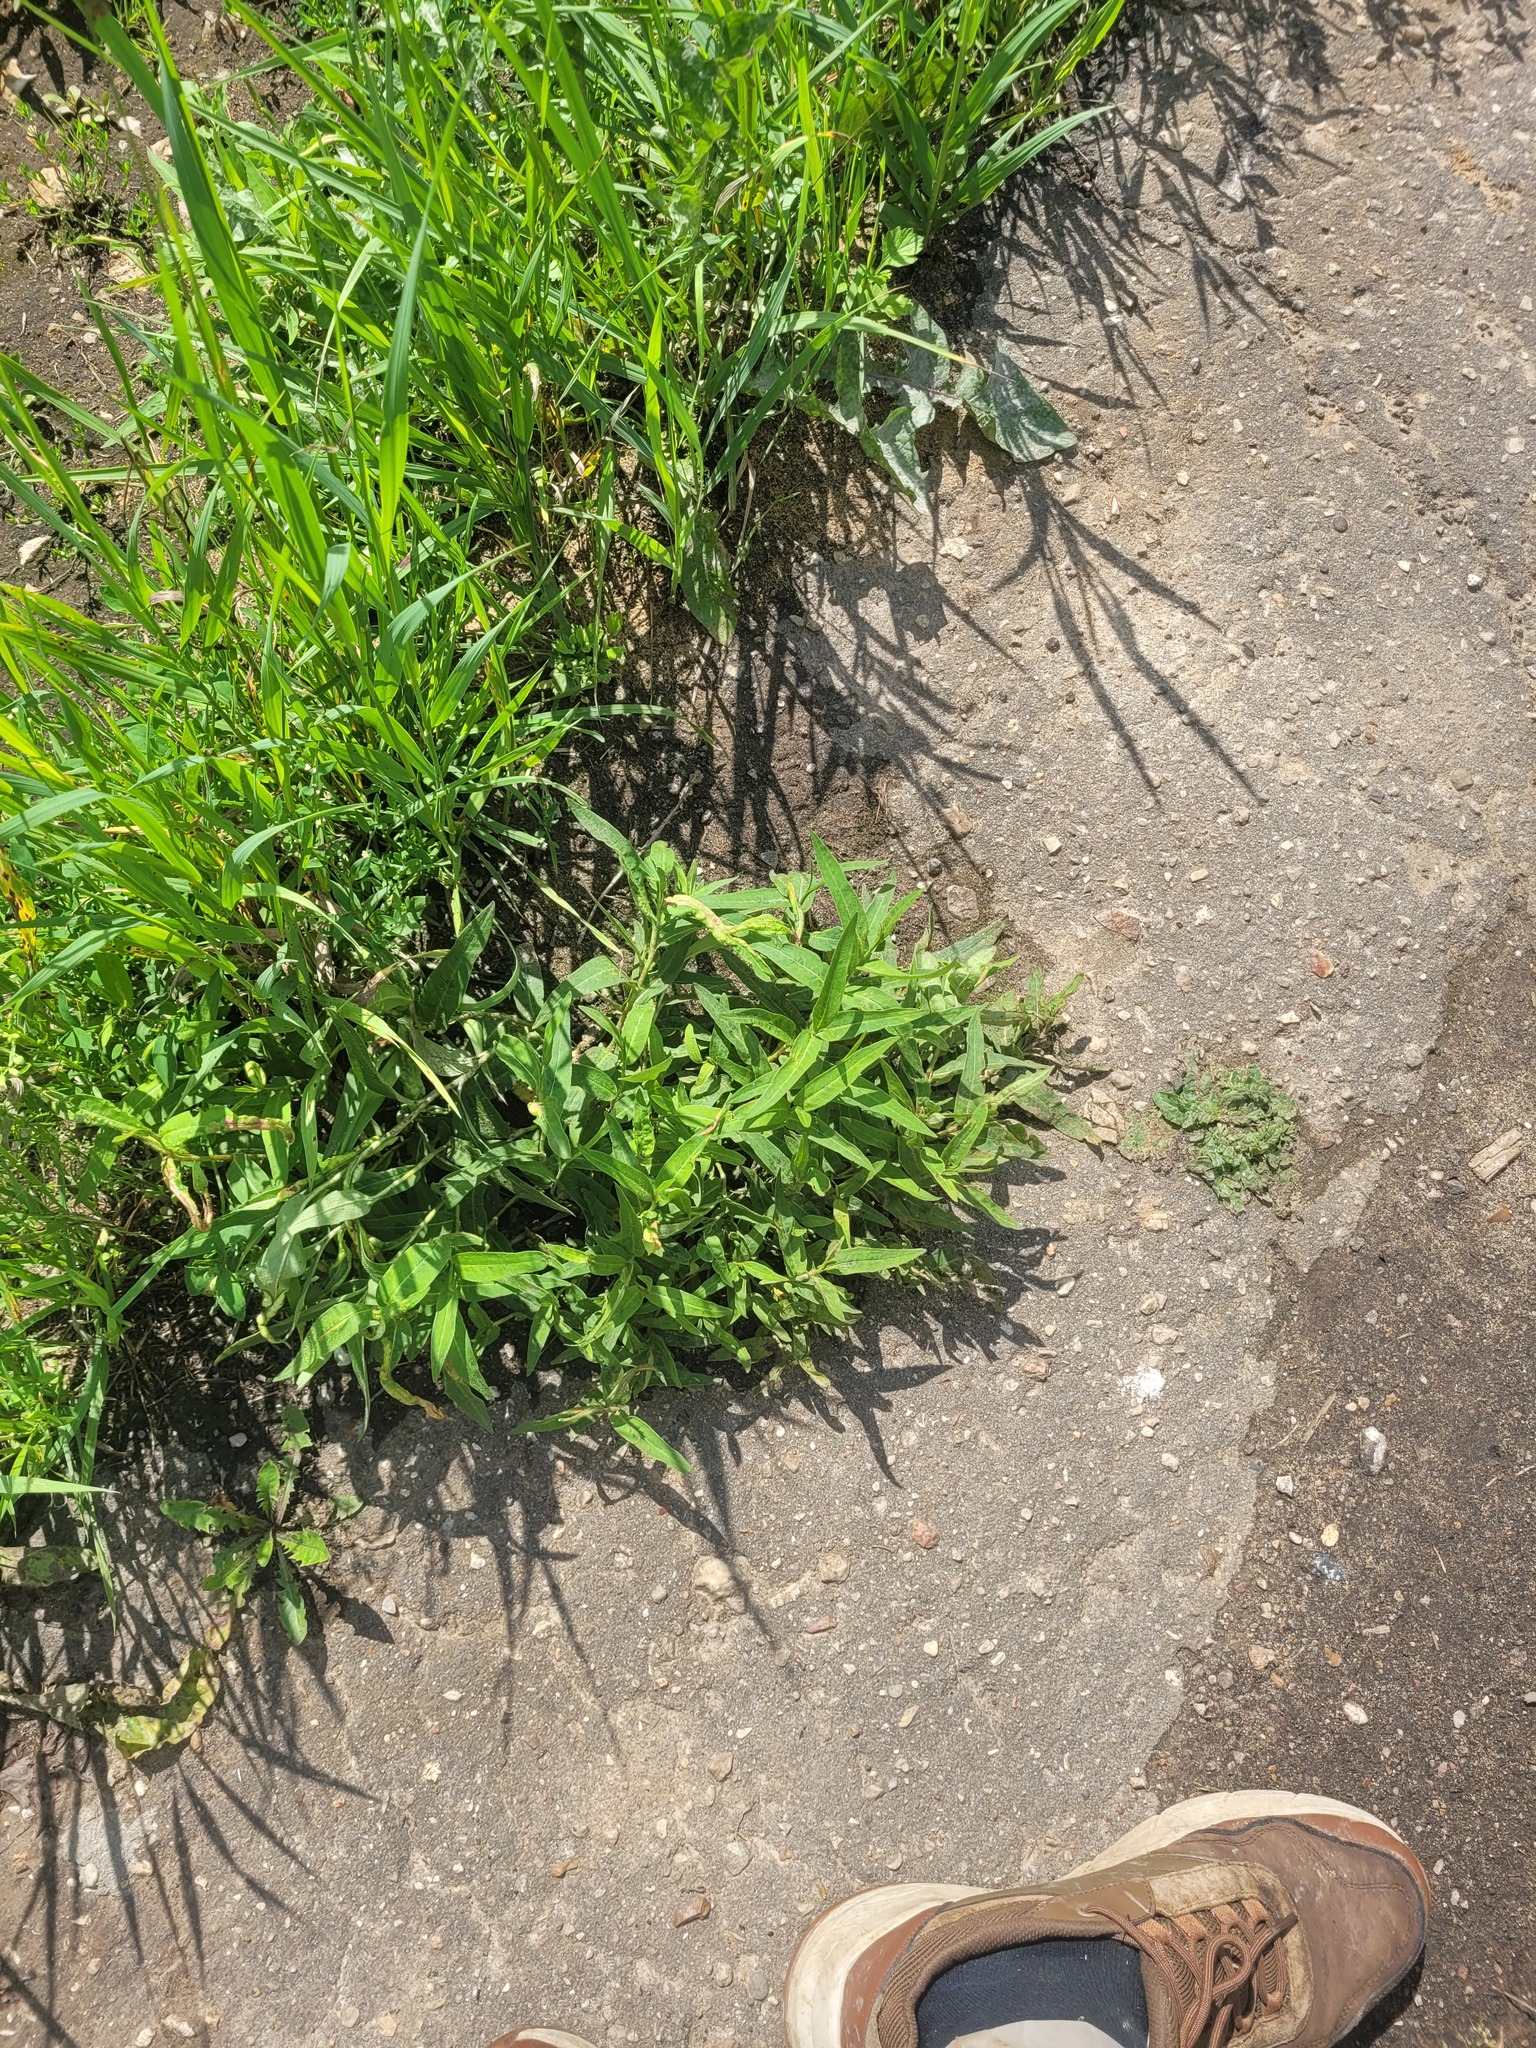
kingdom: Plantae
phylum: Tracheophyta
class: Magnoliopsida
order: Caryophyllales
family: Polygonaceae
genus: Persicaria
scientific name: Persicaria amphibia
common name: Amphibious bistort
